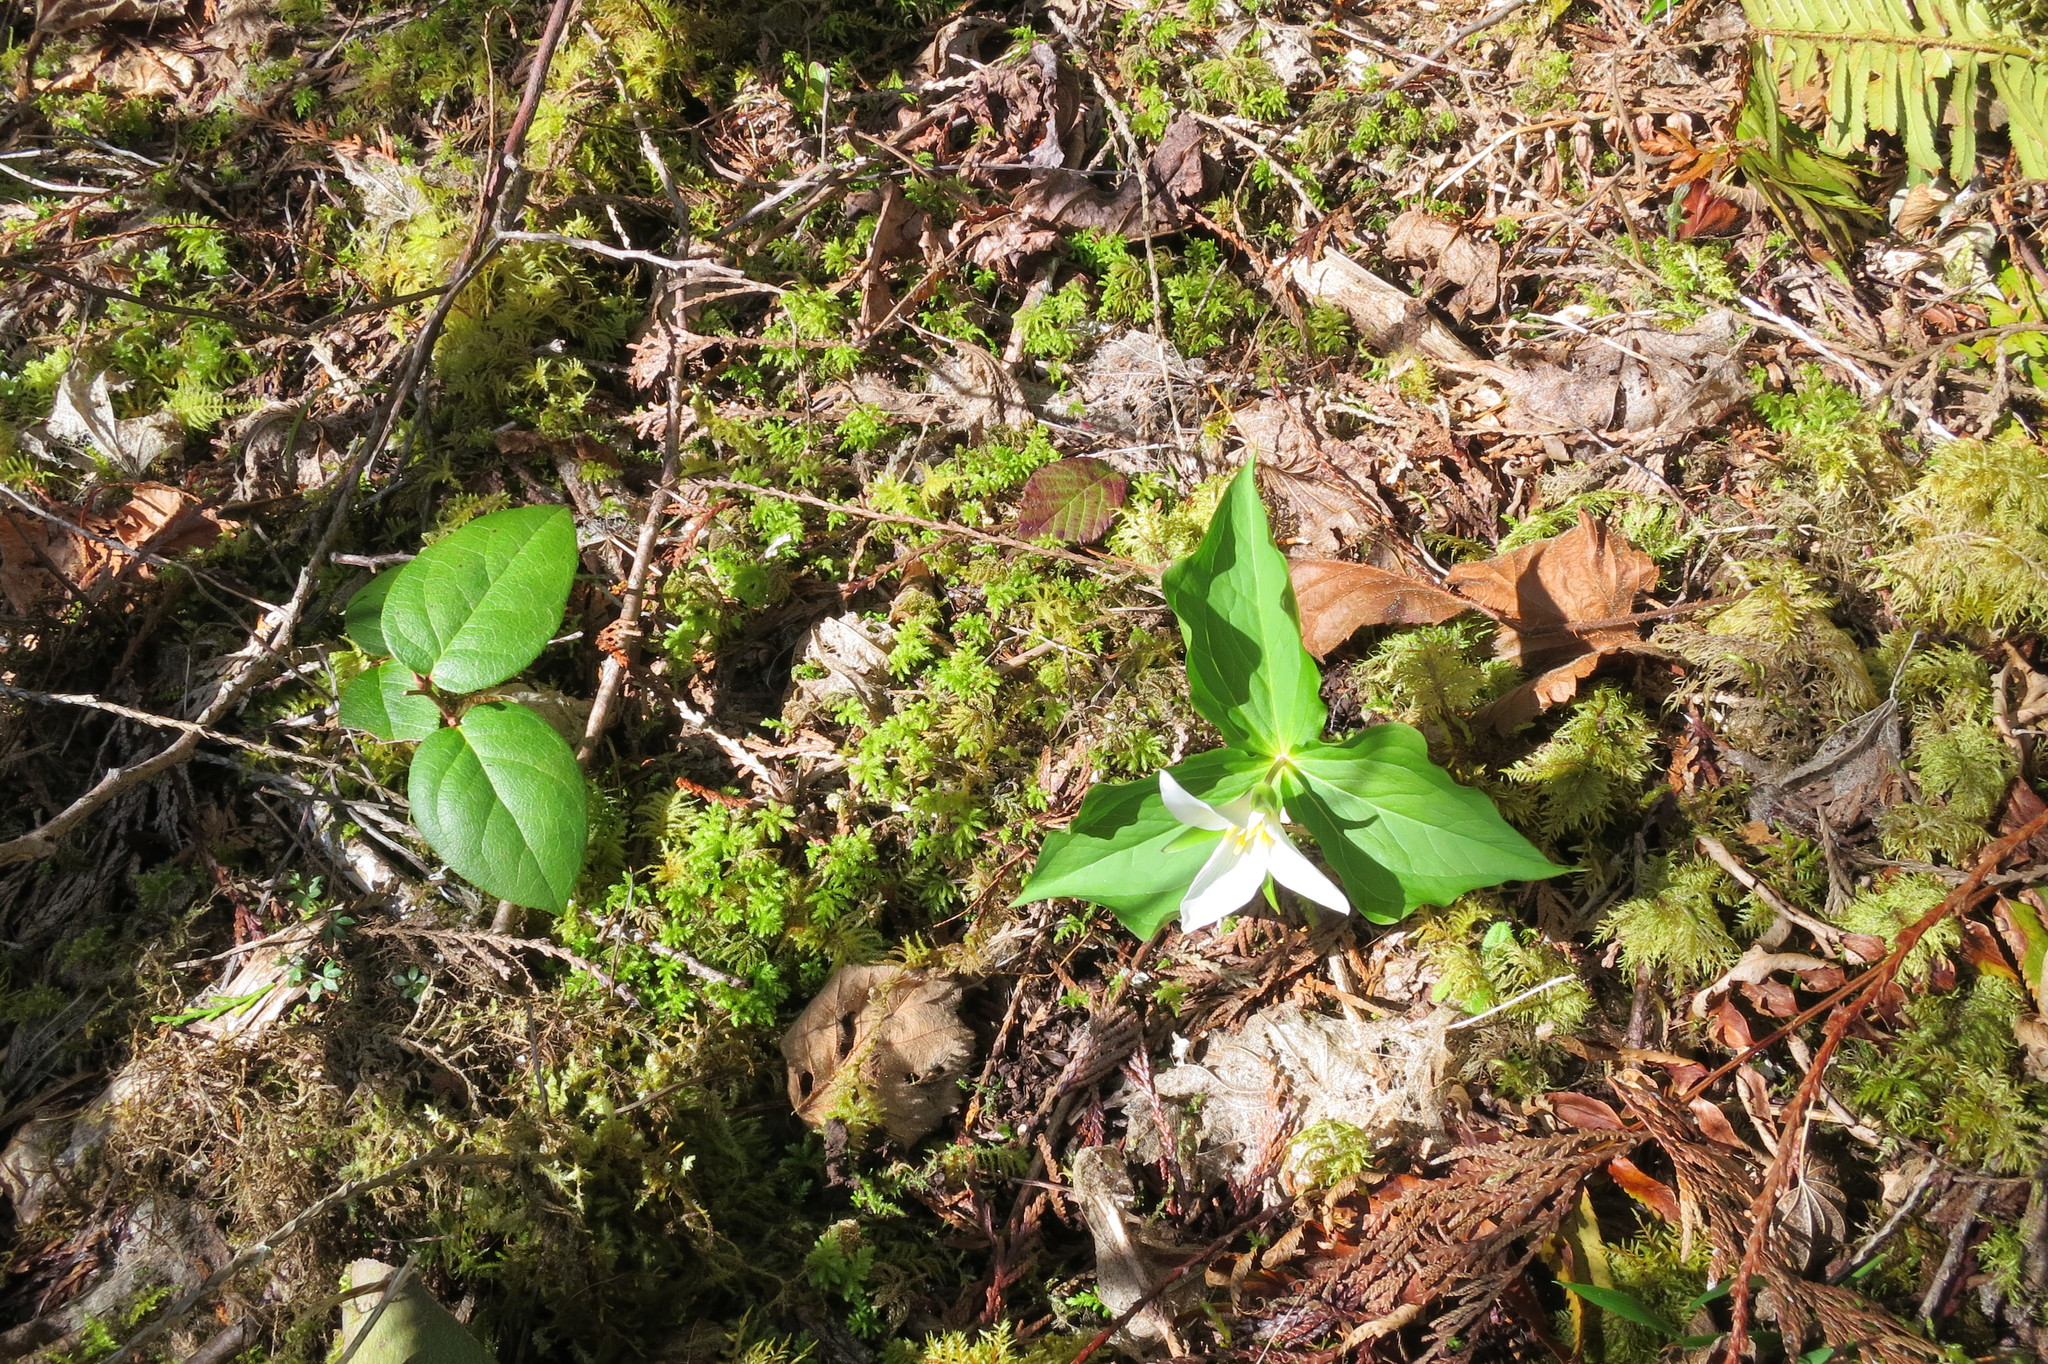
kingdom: Plantae
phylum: Tracheophyta
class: Liliopsida
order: Liliales
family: Melanthiaceae
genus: Trillium
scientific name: Trillium ovatum
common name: Pacific trillium
